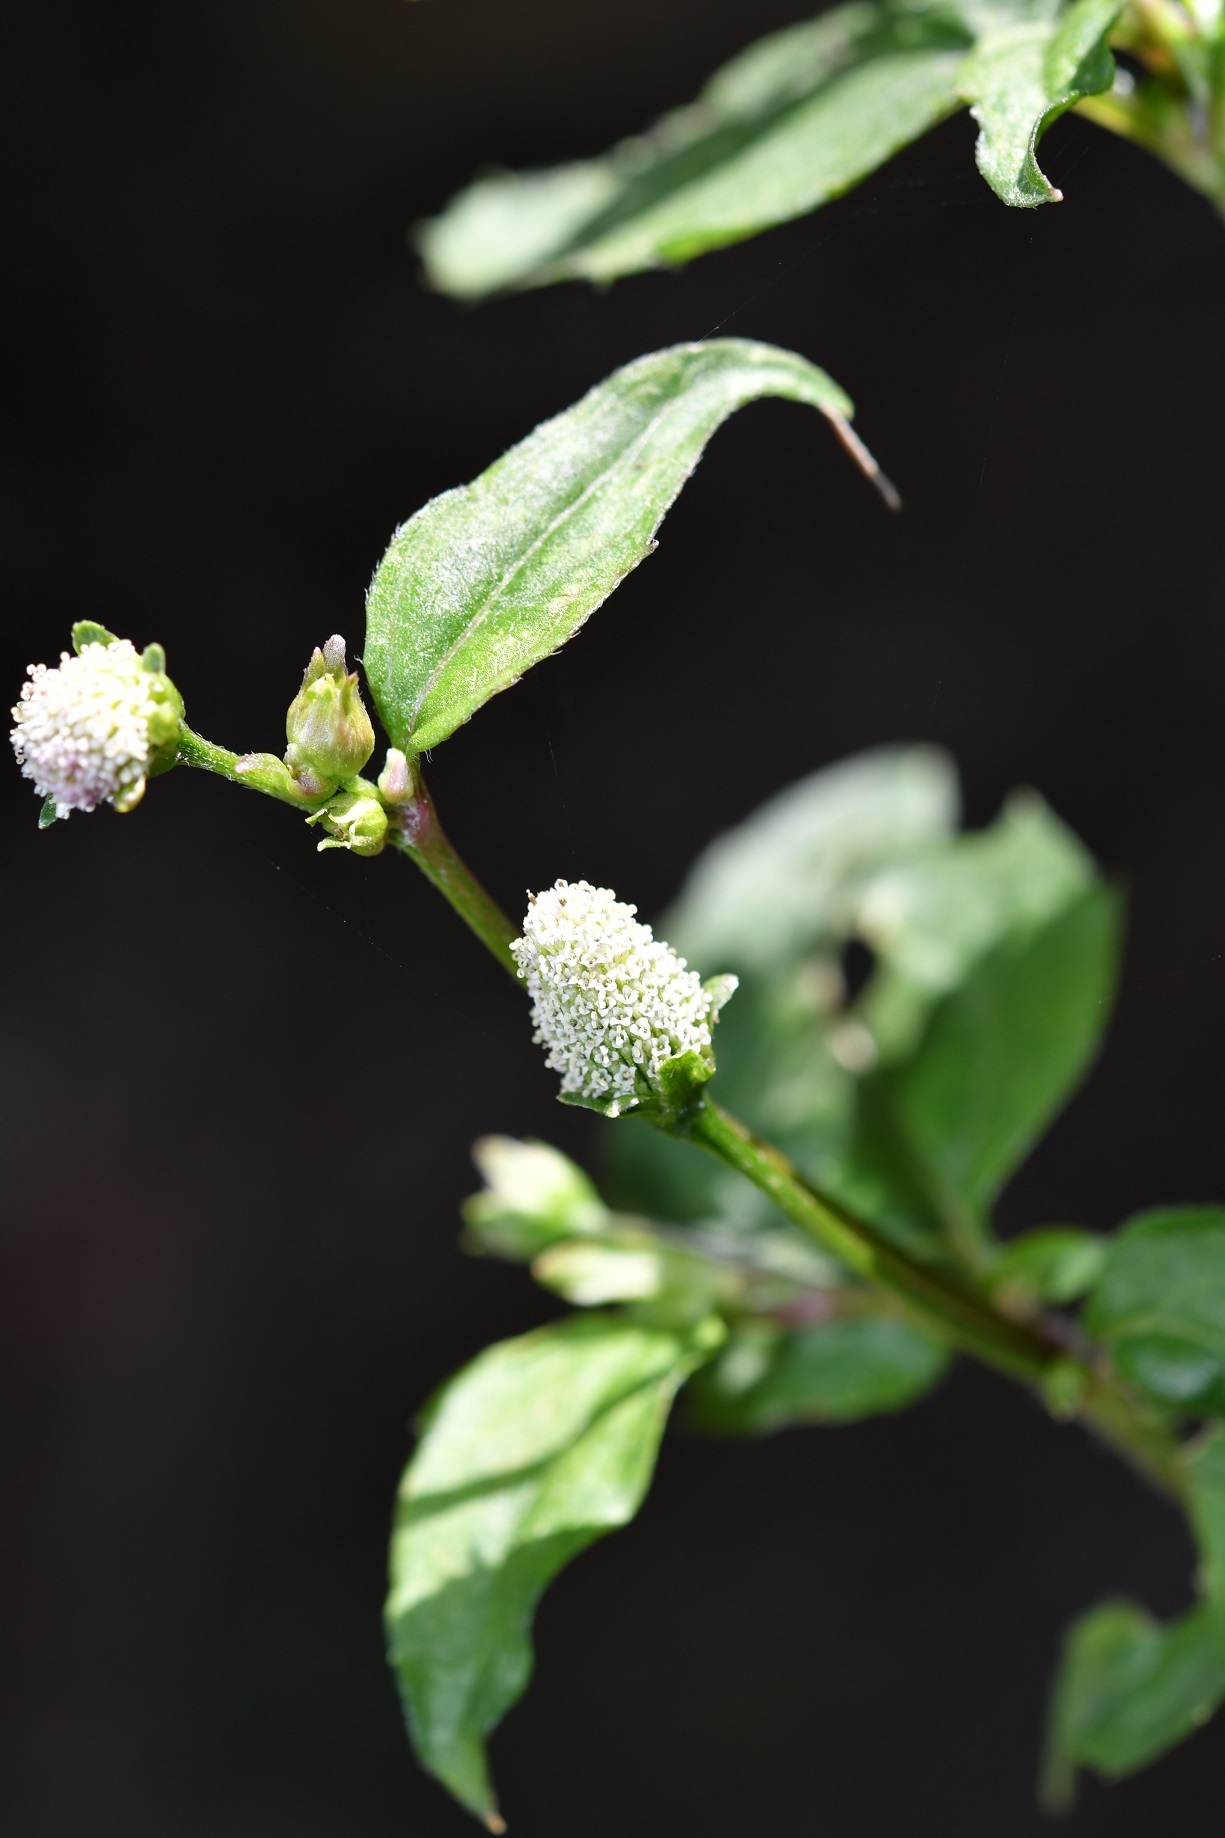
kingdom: Plantae
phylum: Tracheophyta
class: Magnoliopsida
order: Asterales
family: Asteraceae
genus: Acmella
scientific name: Acmella radicans
